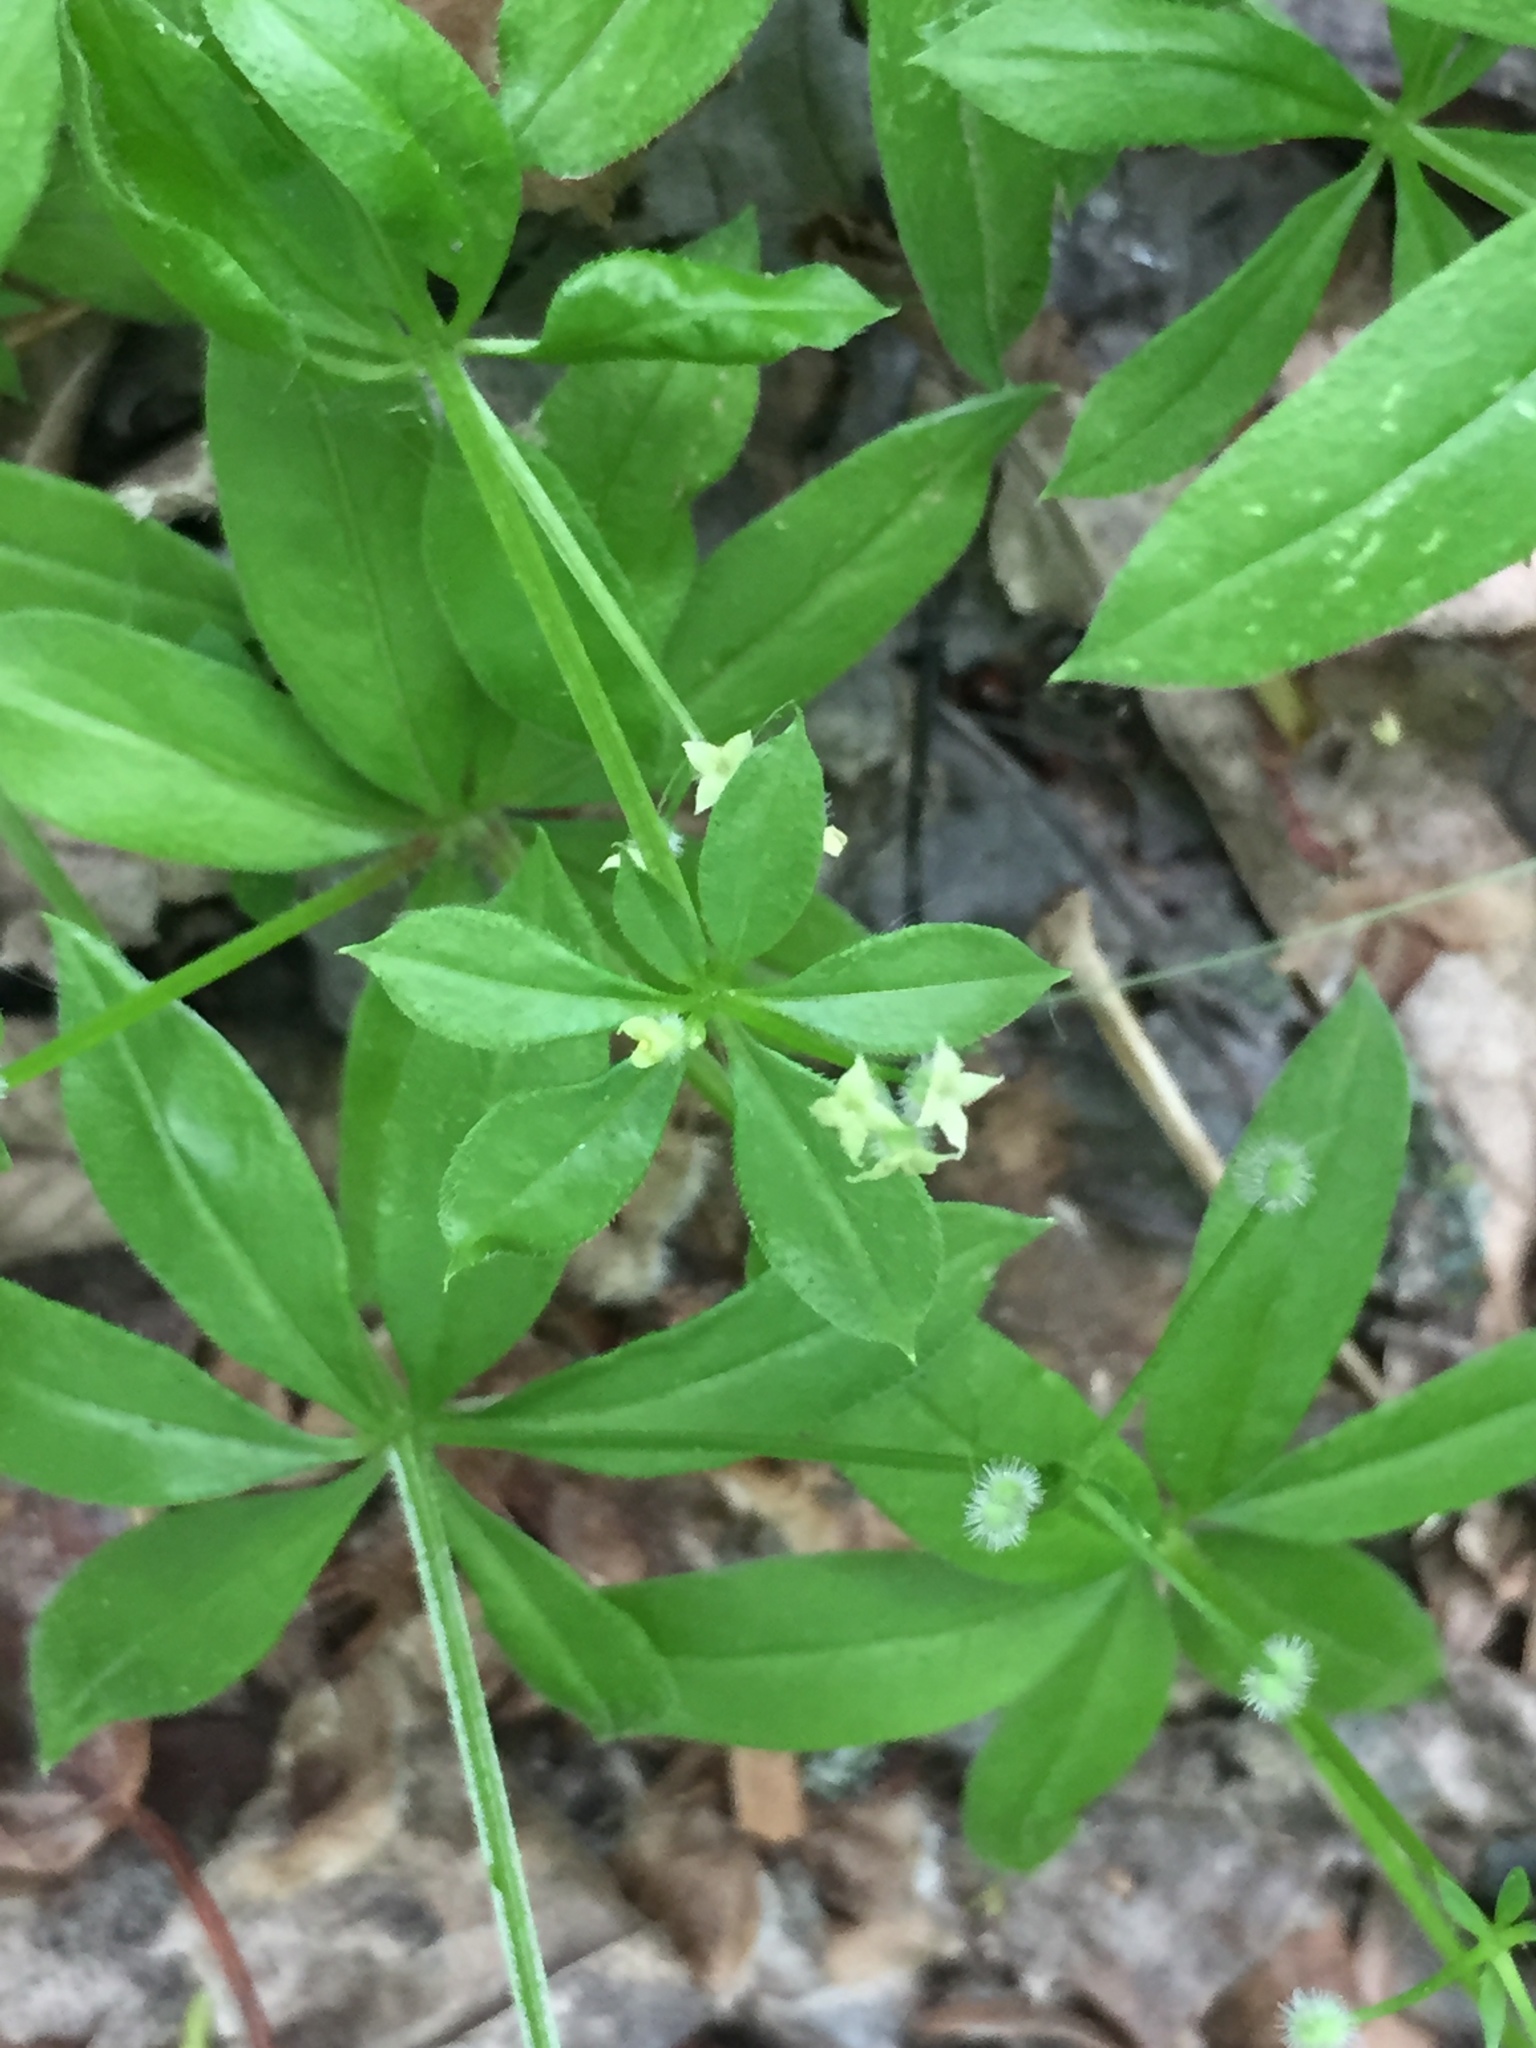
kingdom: Plantae
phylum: Tracheophyta
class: Magnoliopsida
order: Gentianales
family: Rubiaceae
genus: Galium
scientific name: Galium triflorum
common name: Fragrant bedstraw
